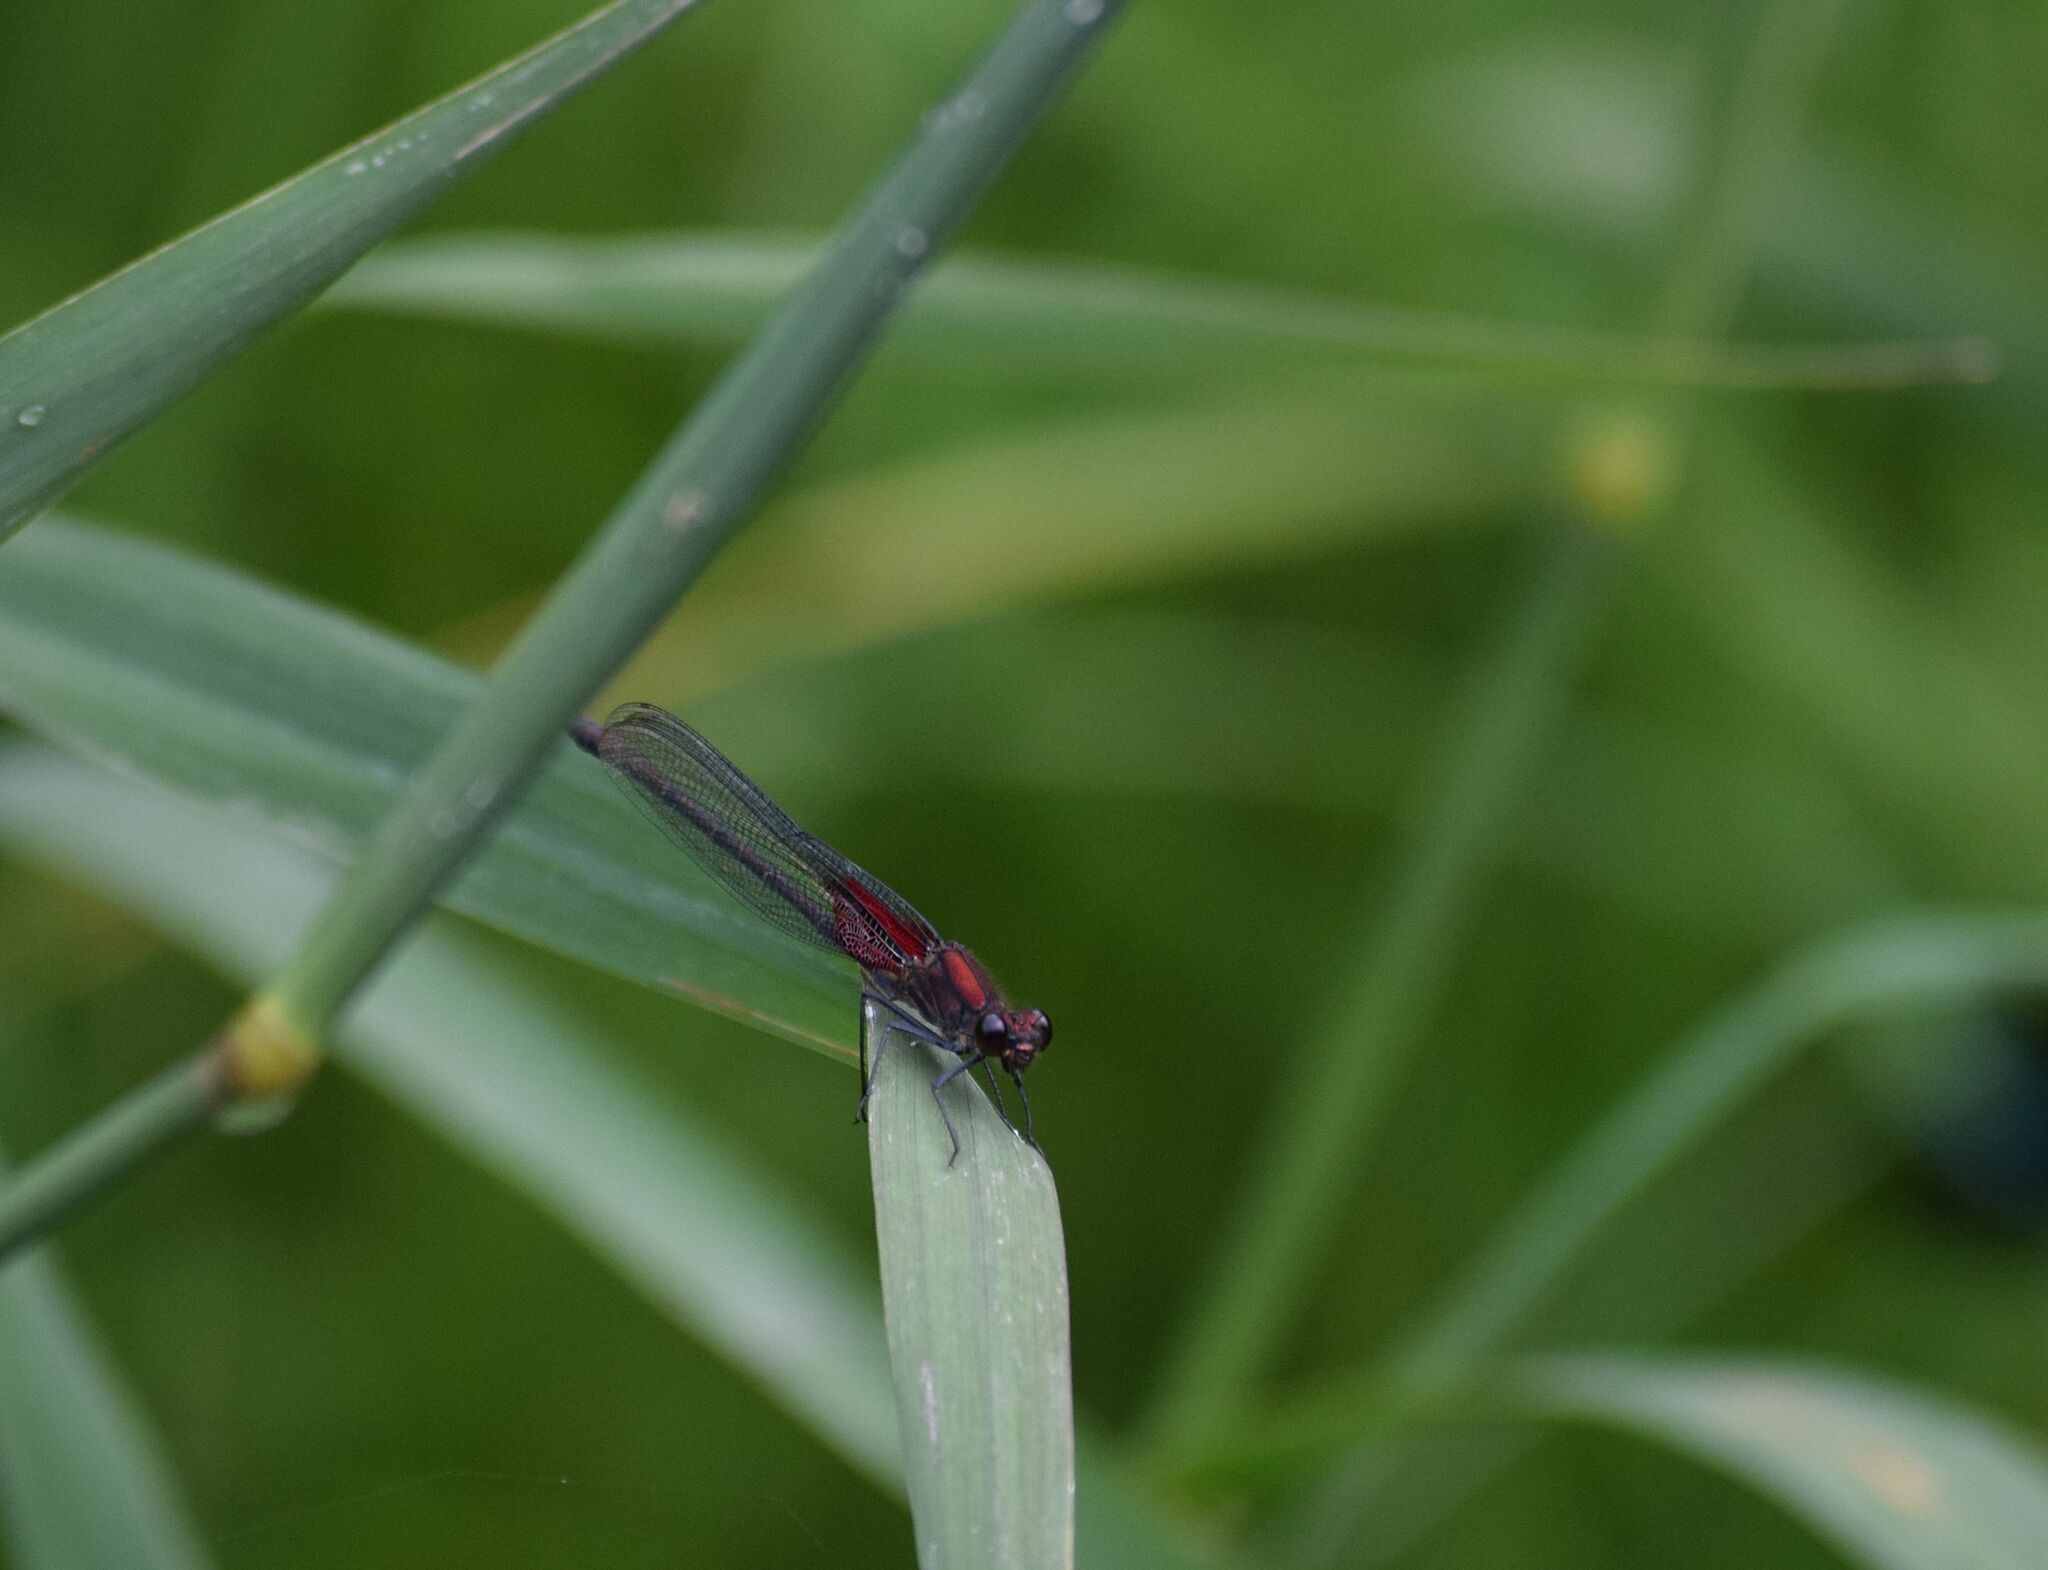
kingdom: Animalia
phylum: Arthropoda
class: Insecta
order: Odonata
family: Calopterygidae
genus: Hetaerina
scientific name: Hetaerina americana
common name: American rubyspot
